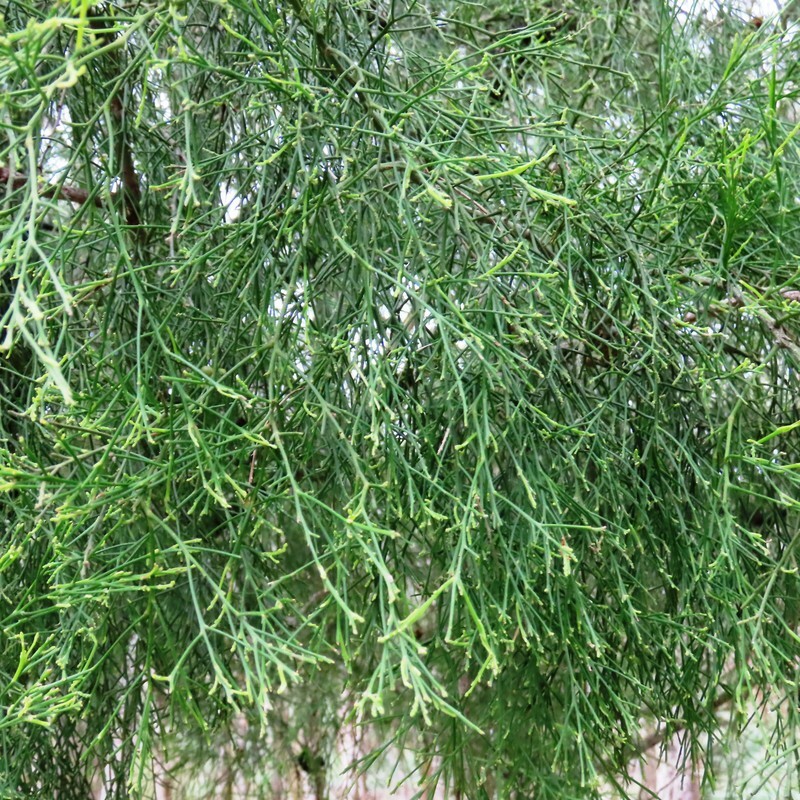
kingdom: Plantae
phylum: Tracheophyta
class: Magnoliopsida
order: Santalales
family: Santalaceae
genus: Exocarpos
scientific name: Exocarpos cupressiformis
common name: Cherry ballart
